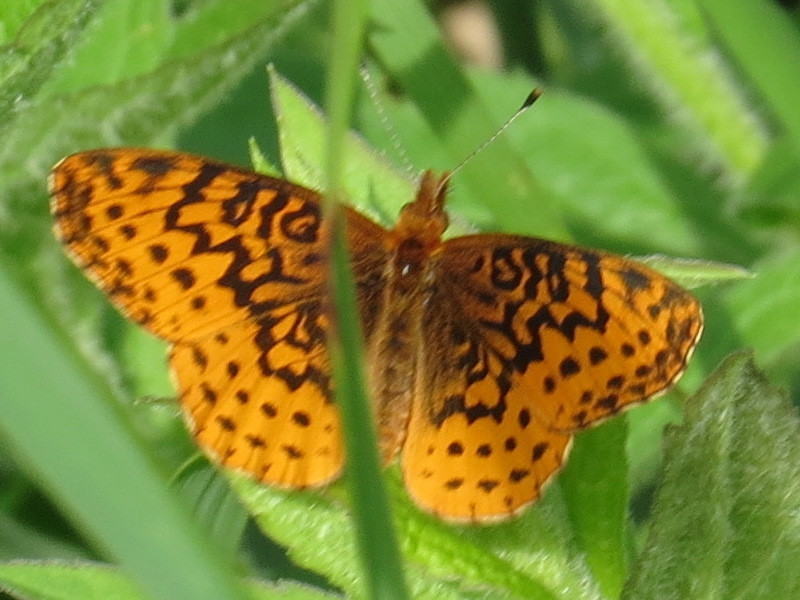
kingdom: Animalia
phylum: Arthropoda
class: Insecta
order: Lepidoptera
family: Nymphalidae
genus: Clossiana
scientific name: Clossiana toddi
